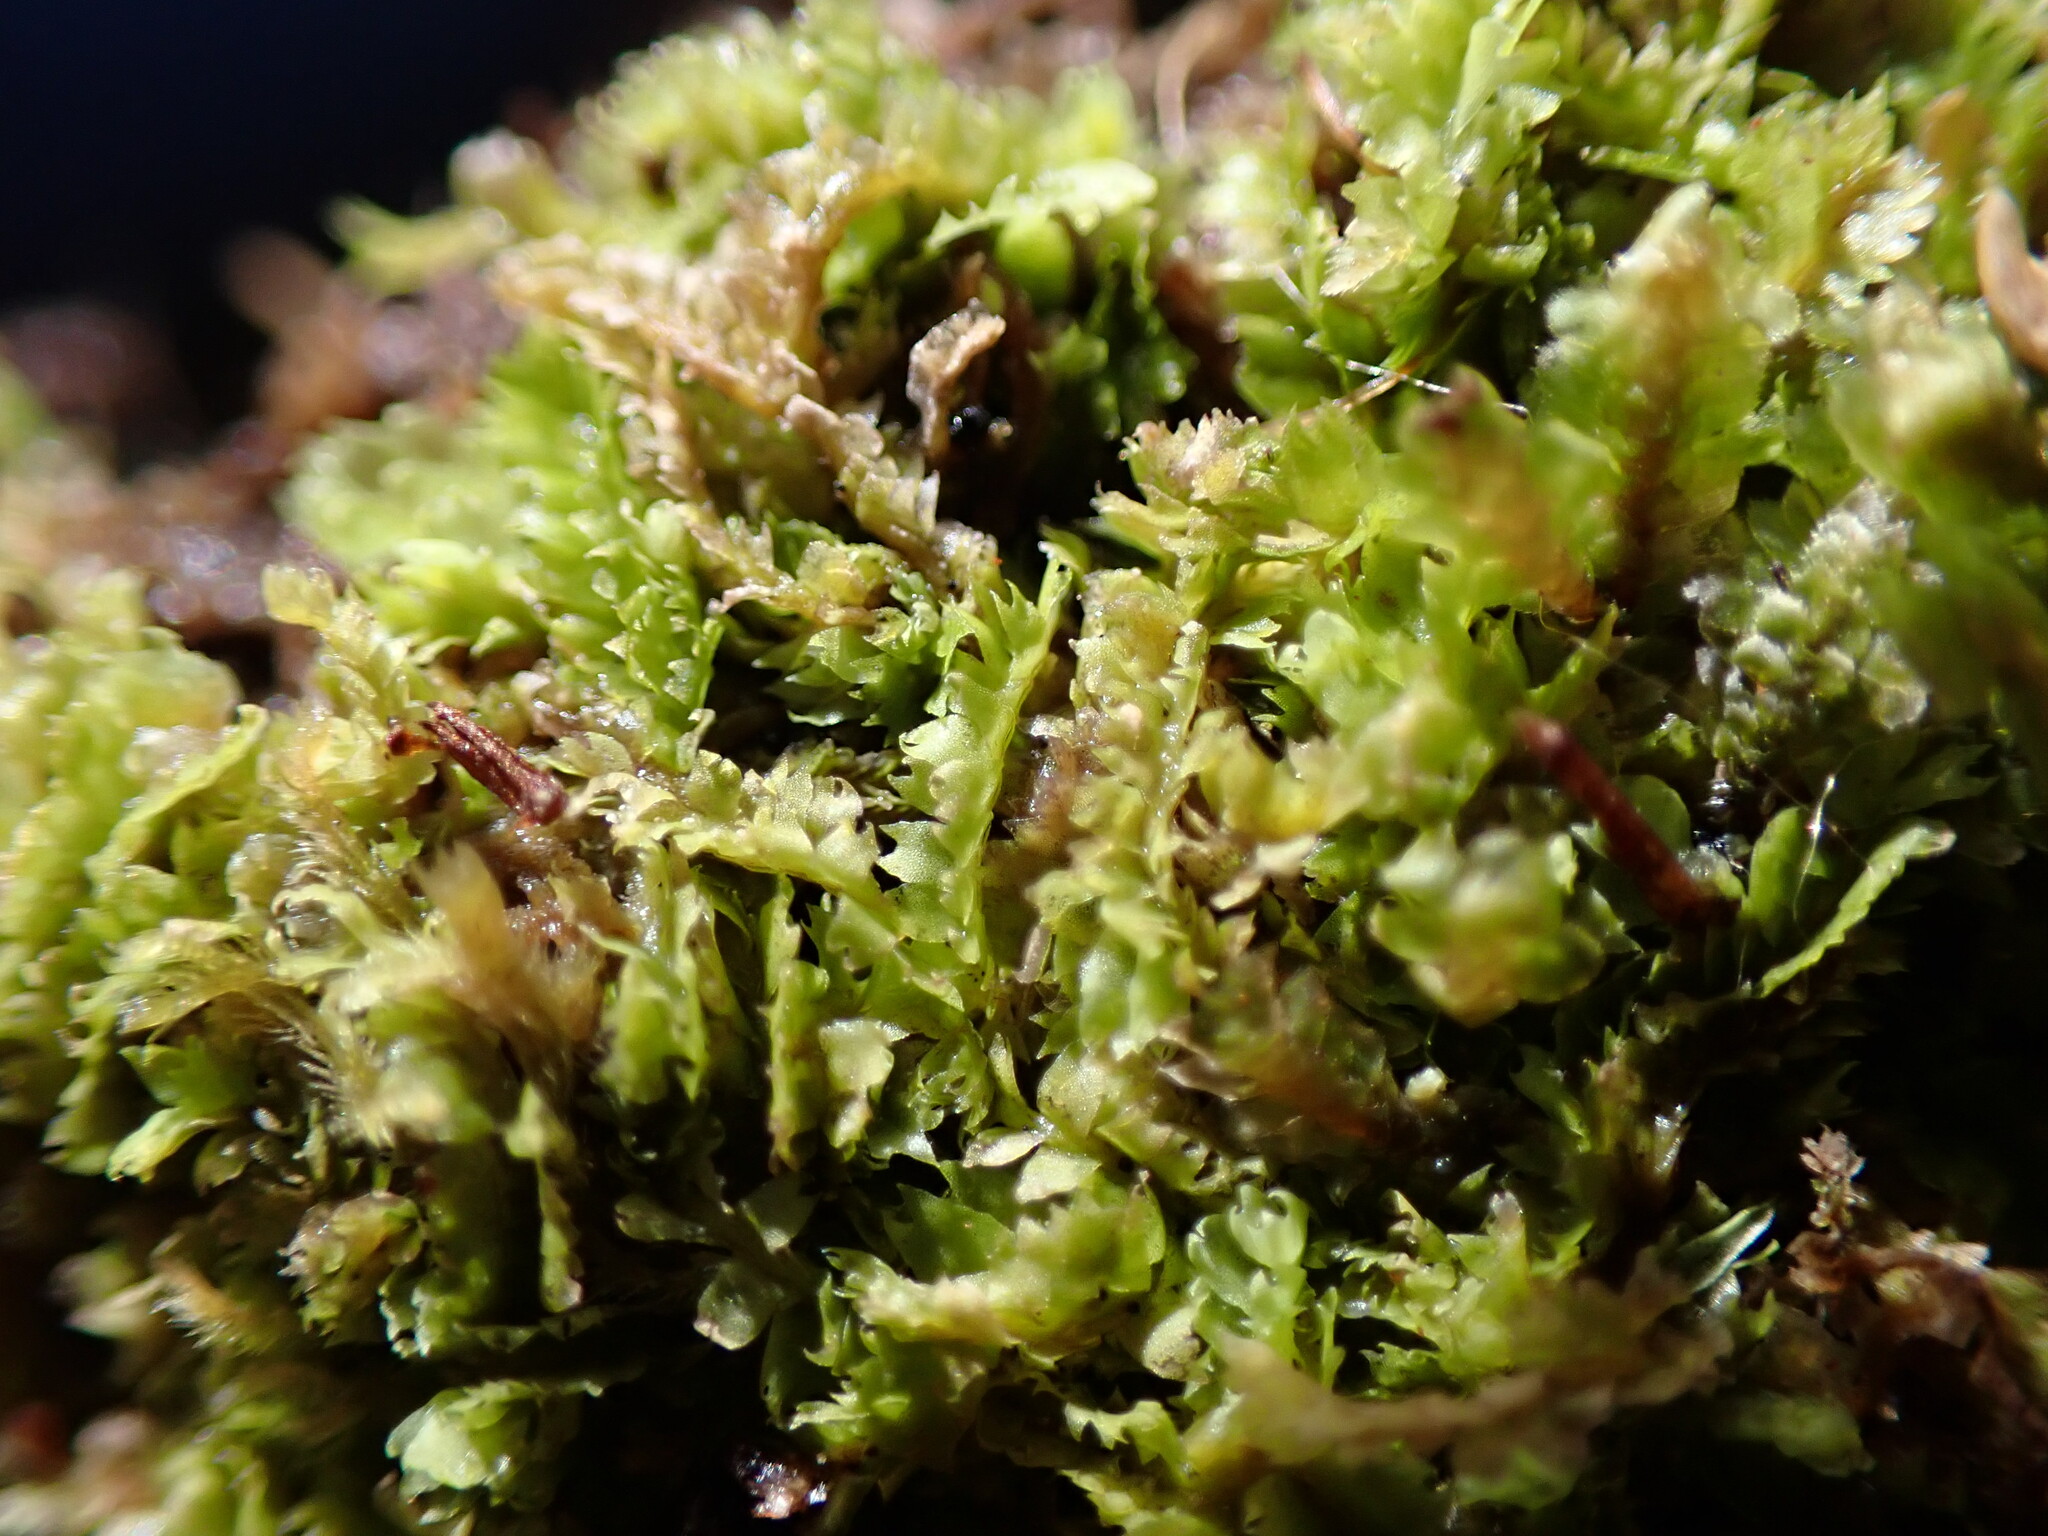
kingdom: Plantae
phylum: Marchantiophyta
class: Jungermanniopsida
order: Jungermanniales
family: Geocalycaceae
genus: Geocalyx
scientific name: Geocalyx graveolens
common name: Turps pouchwort
